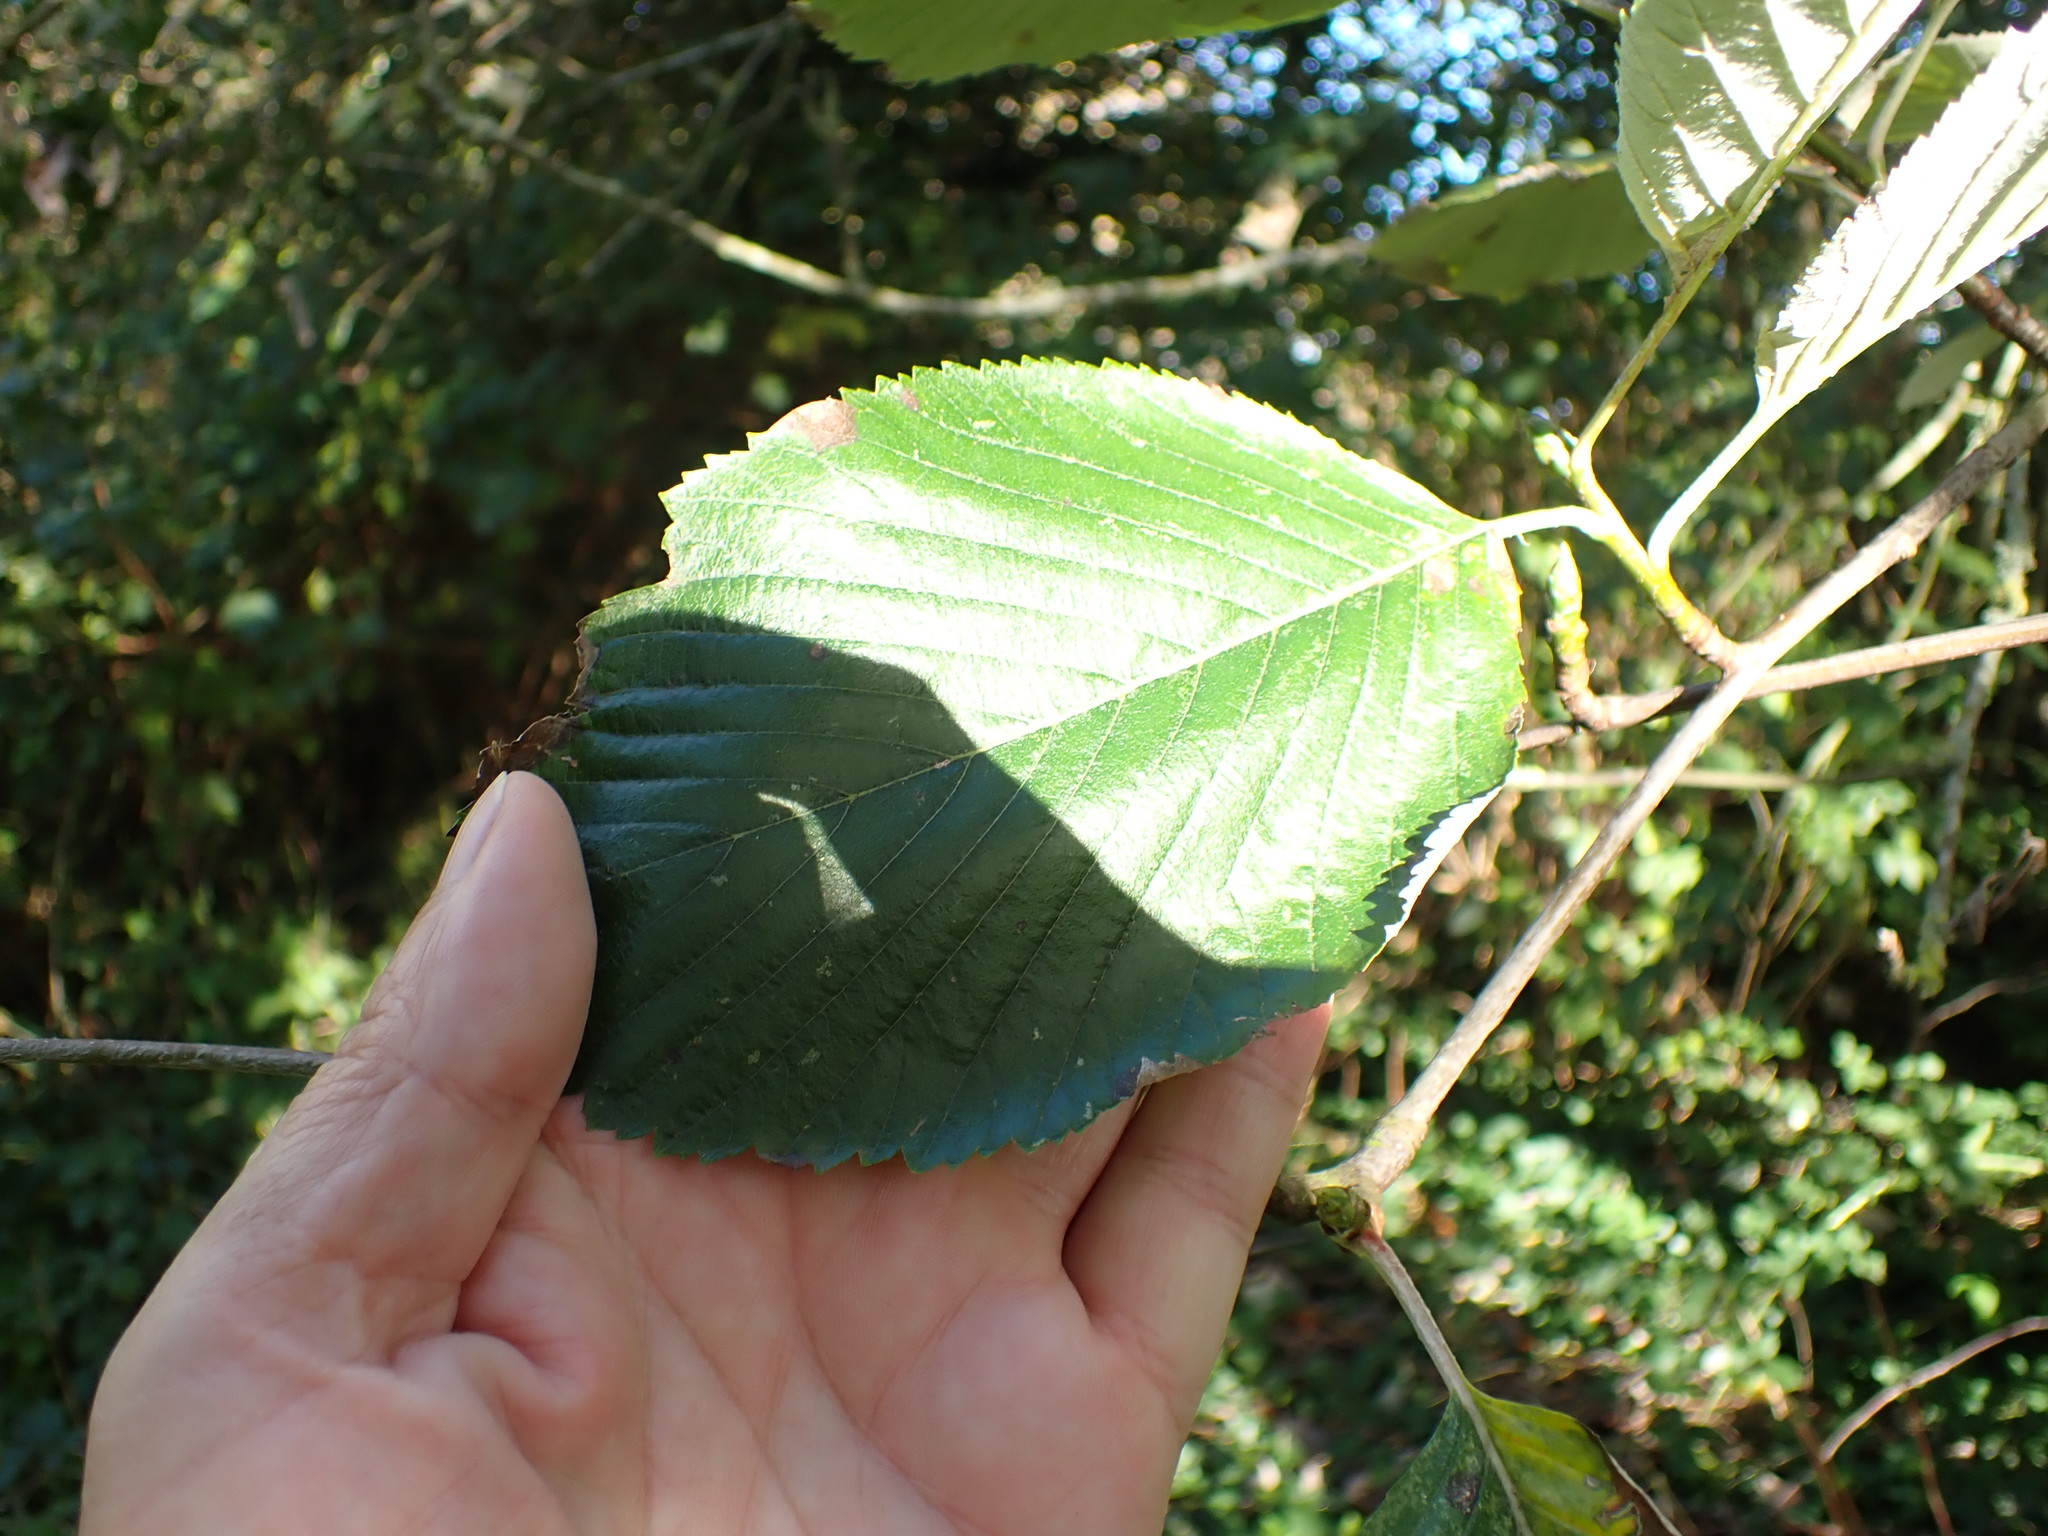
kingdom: Plantae
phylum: Tracheophyta
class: Magnoliopsida
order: Rosales
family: Rosaceae
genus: Aria
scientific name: Aria edulis
